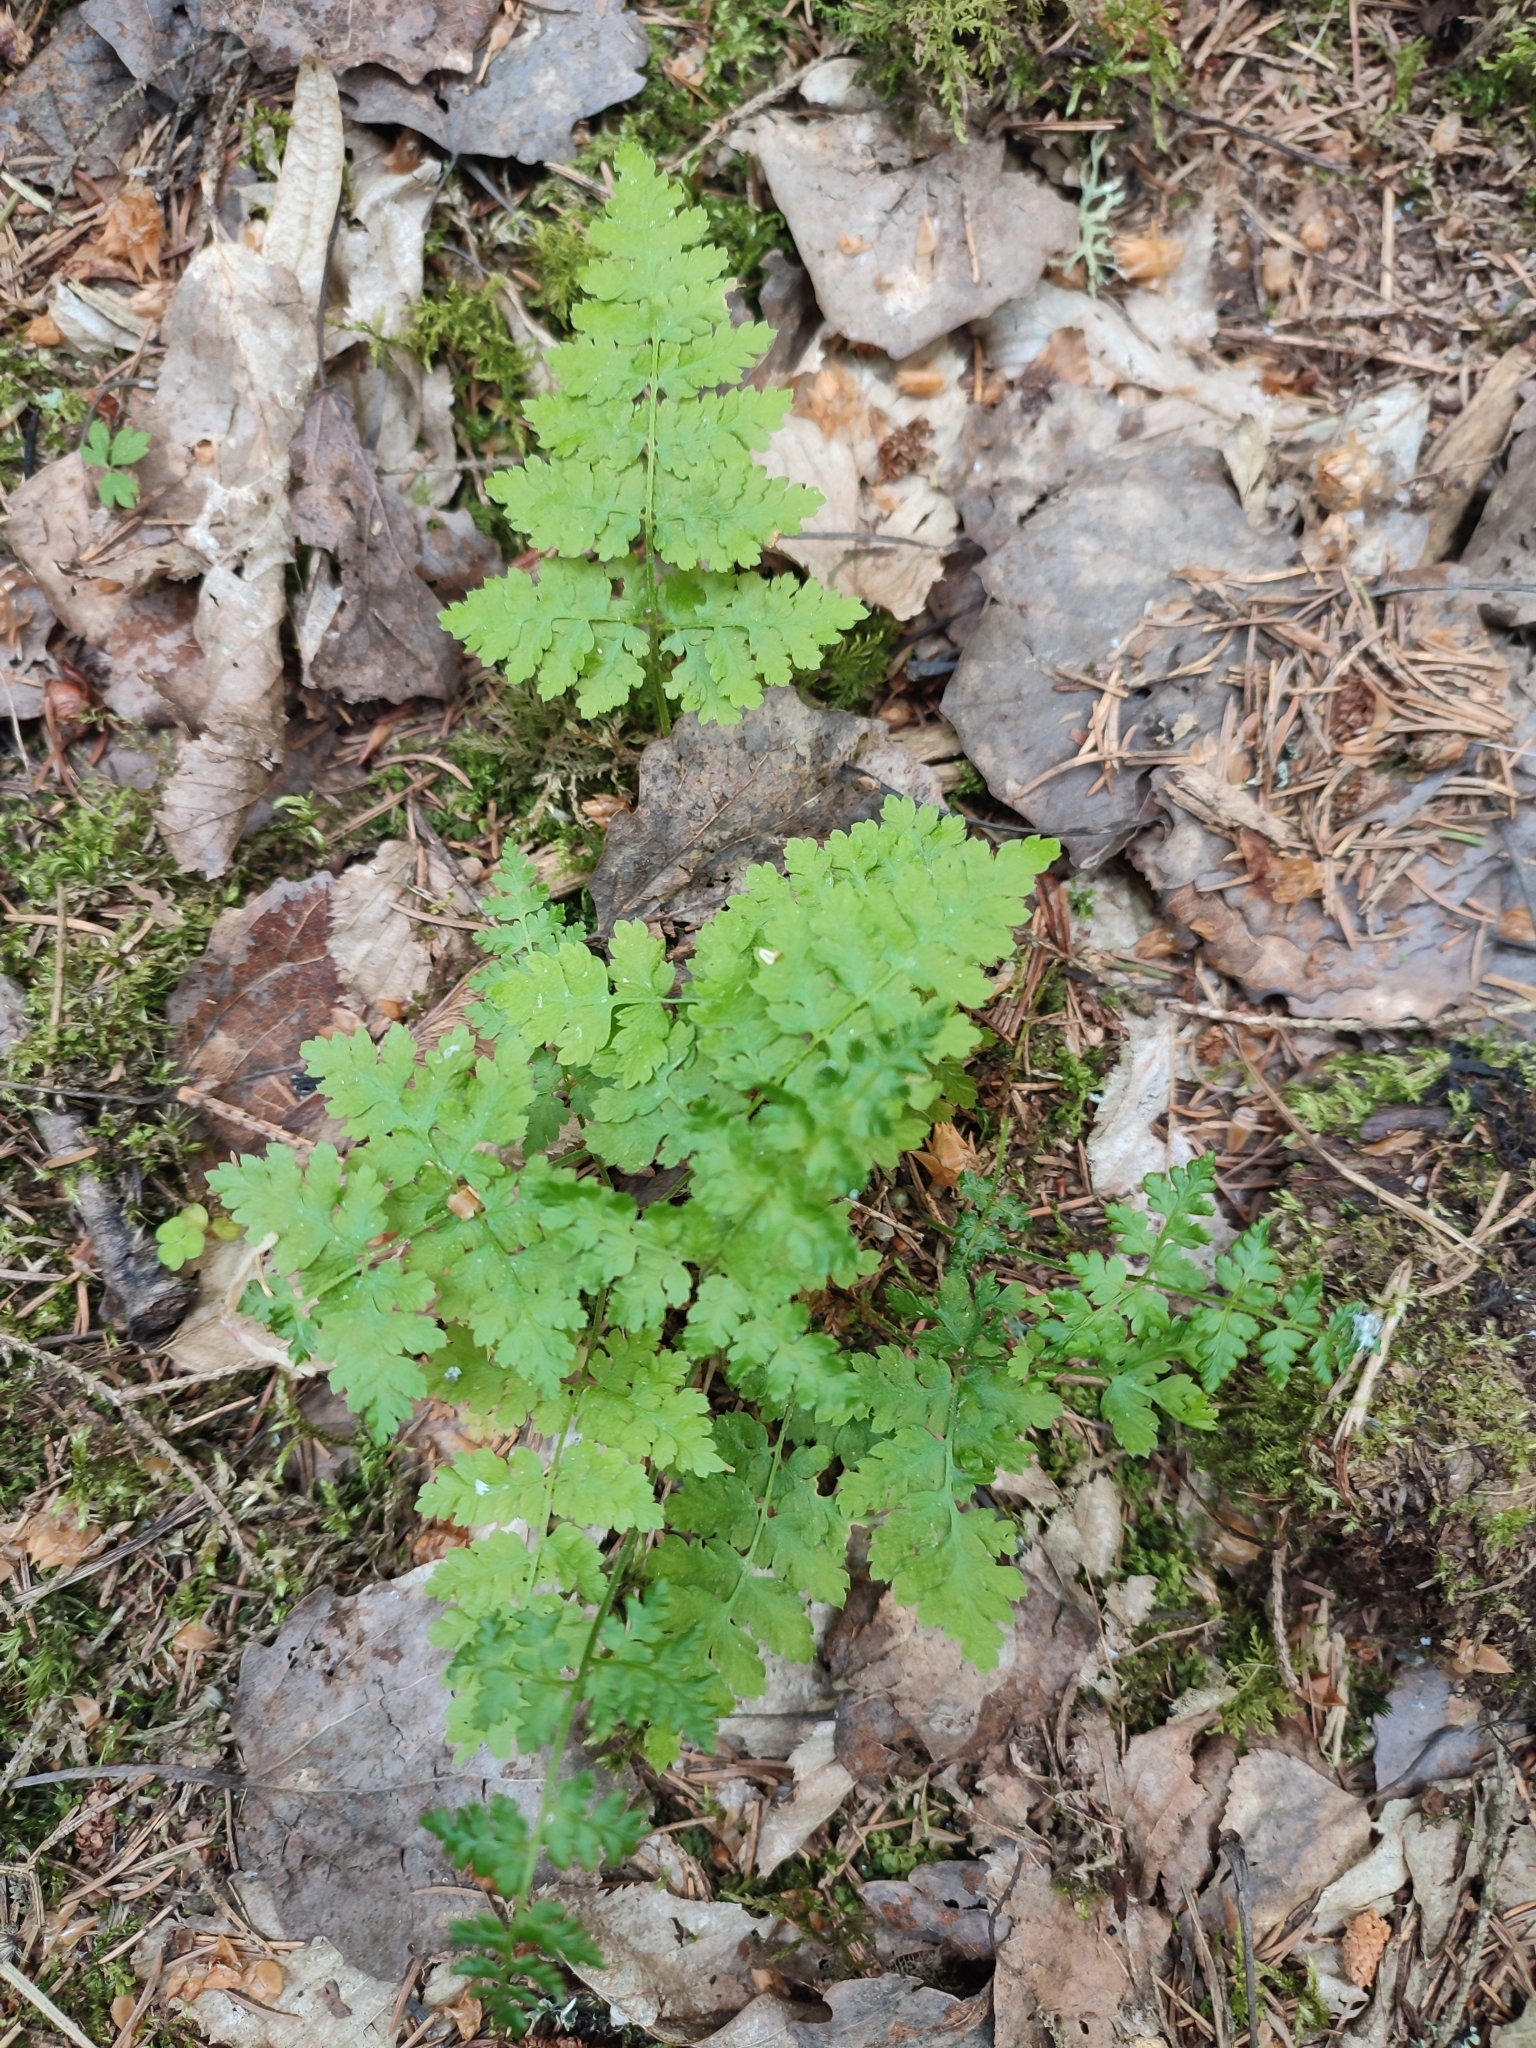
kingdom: Plantae
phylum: Tracheophyta
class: Polypodiopsida
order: Polypodiales
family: Dryopteridaceae
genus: Dryopteris
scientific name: Dryopteris carthusiana
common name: Narrow buckler-fern
